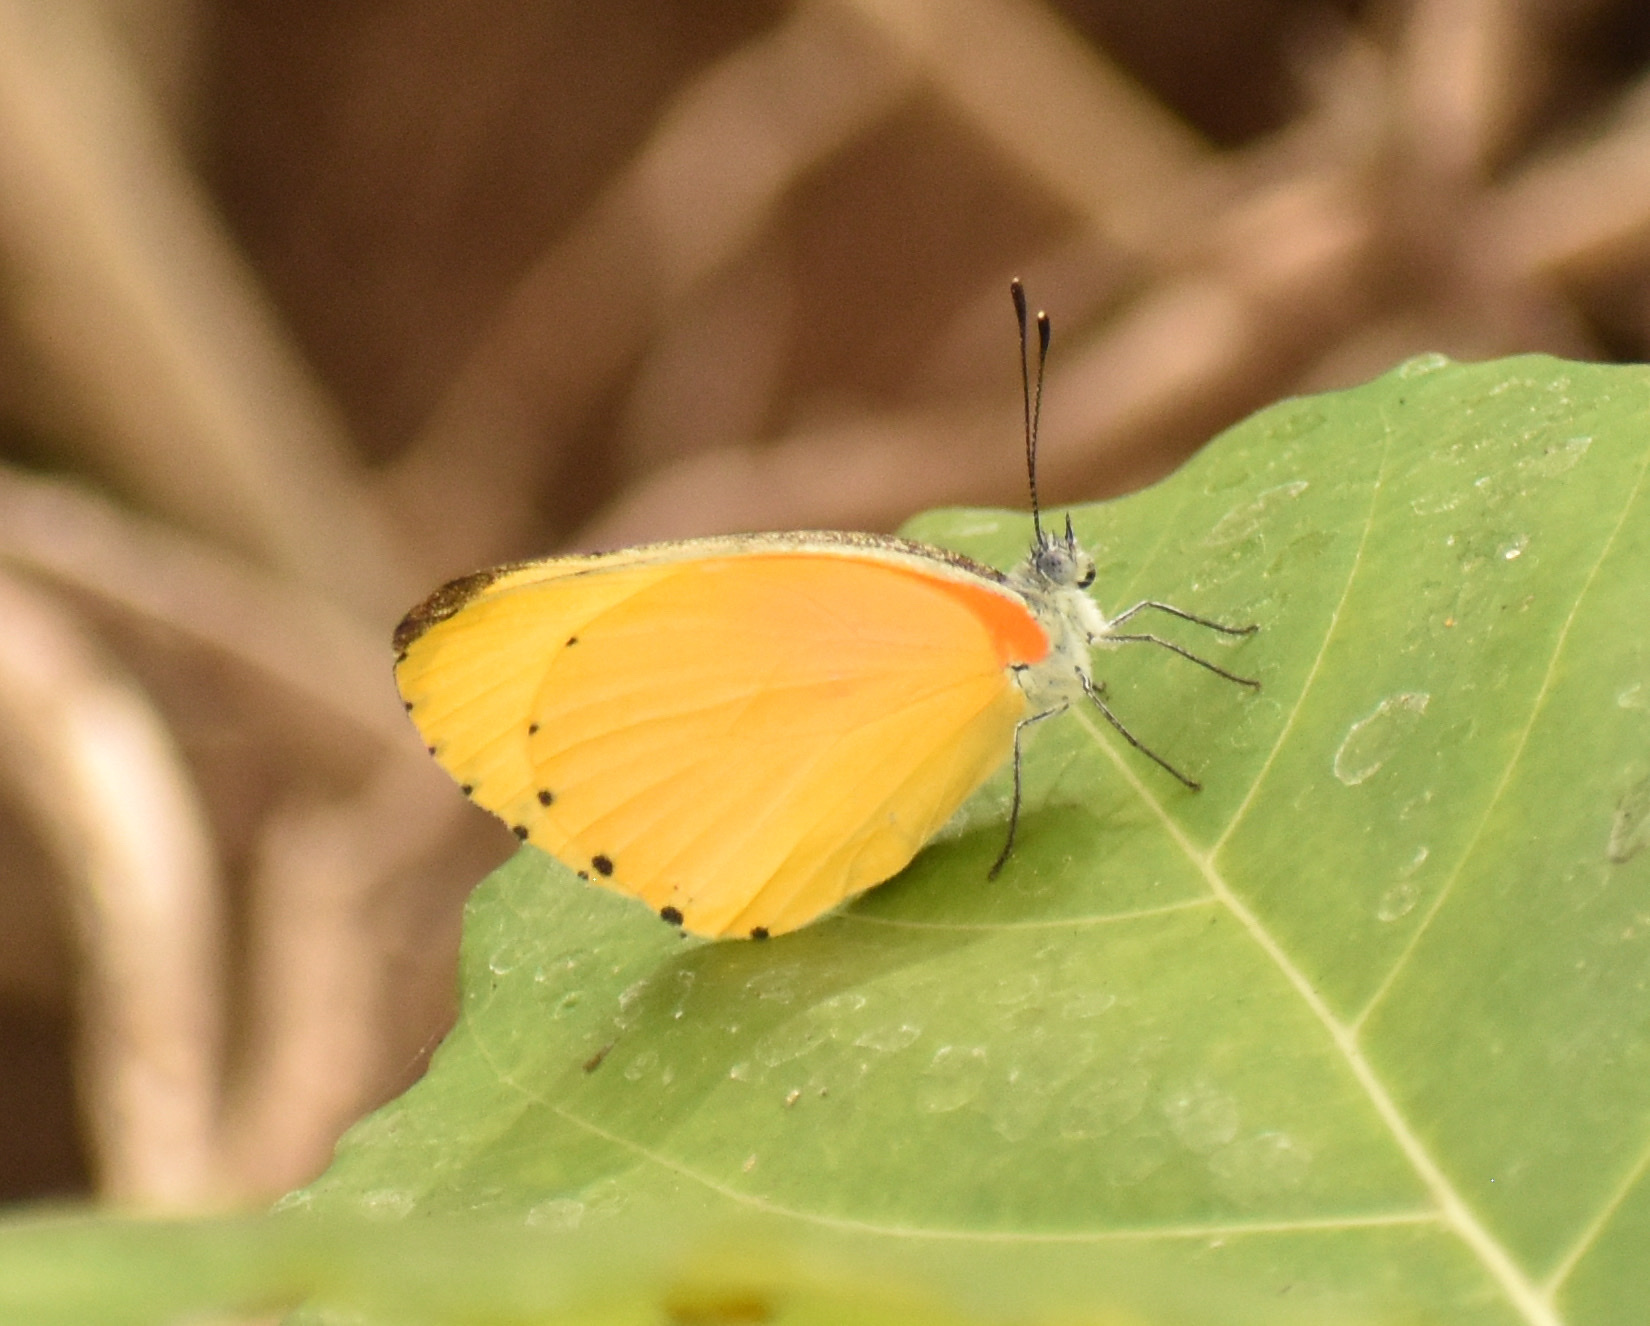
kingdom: Animalia
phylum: Arthropoda
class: Insecta
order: Lepidoptera
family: Pieridae
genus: Mylothris
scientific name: Mylothris agathina
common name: Eastern dotted border
